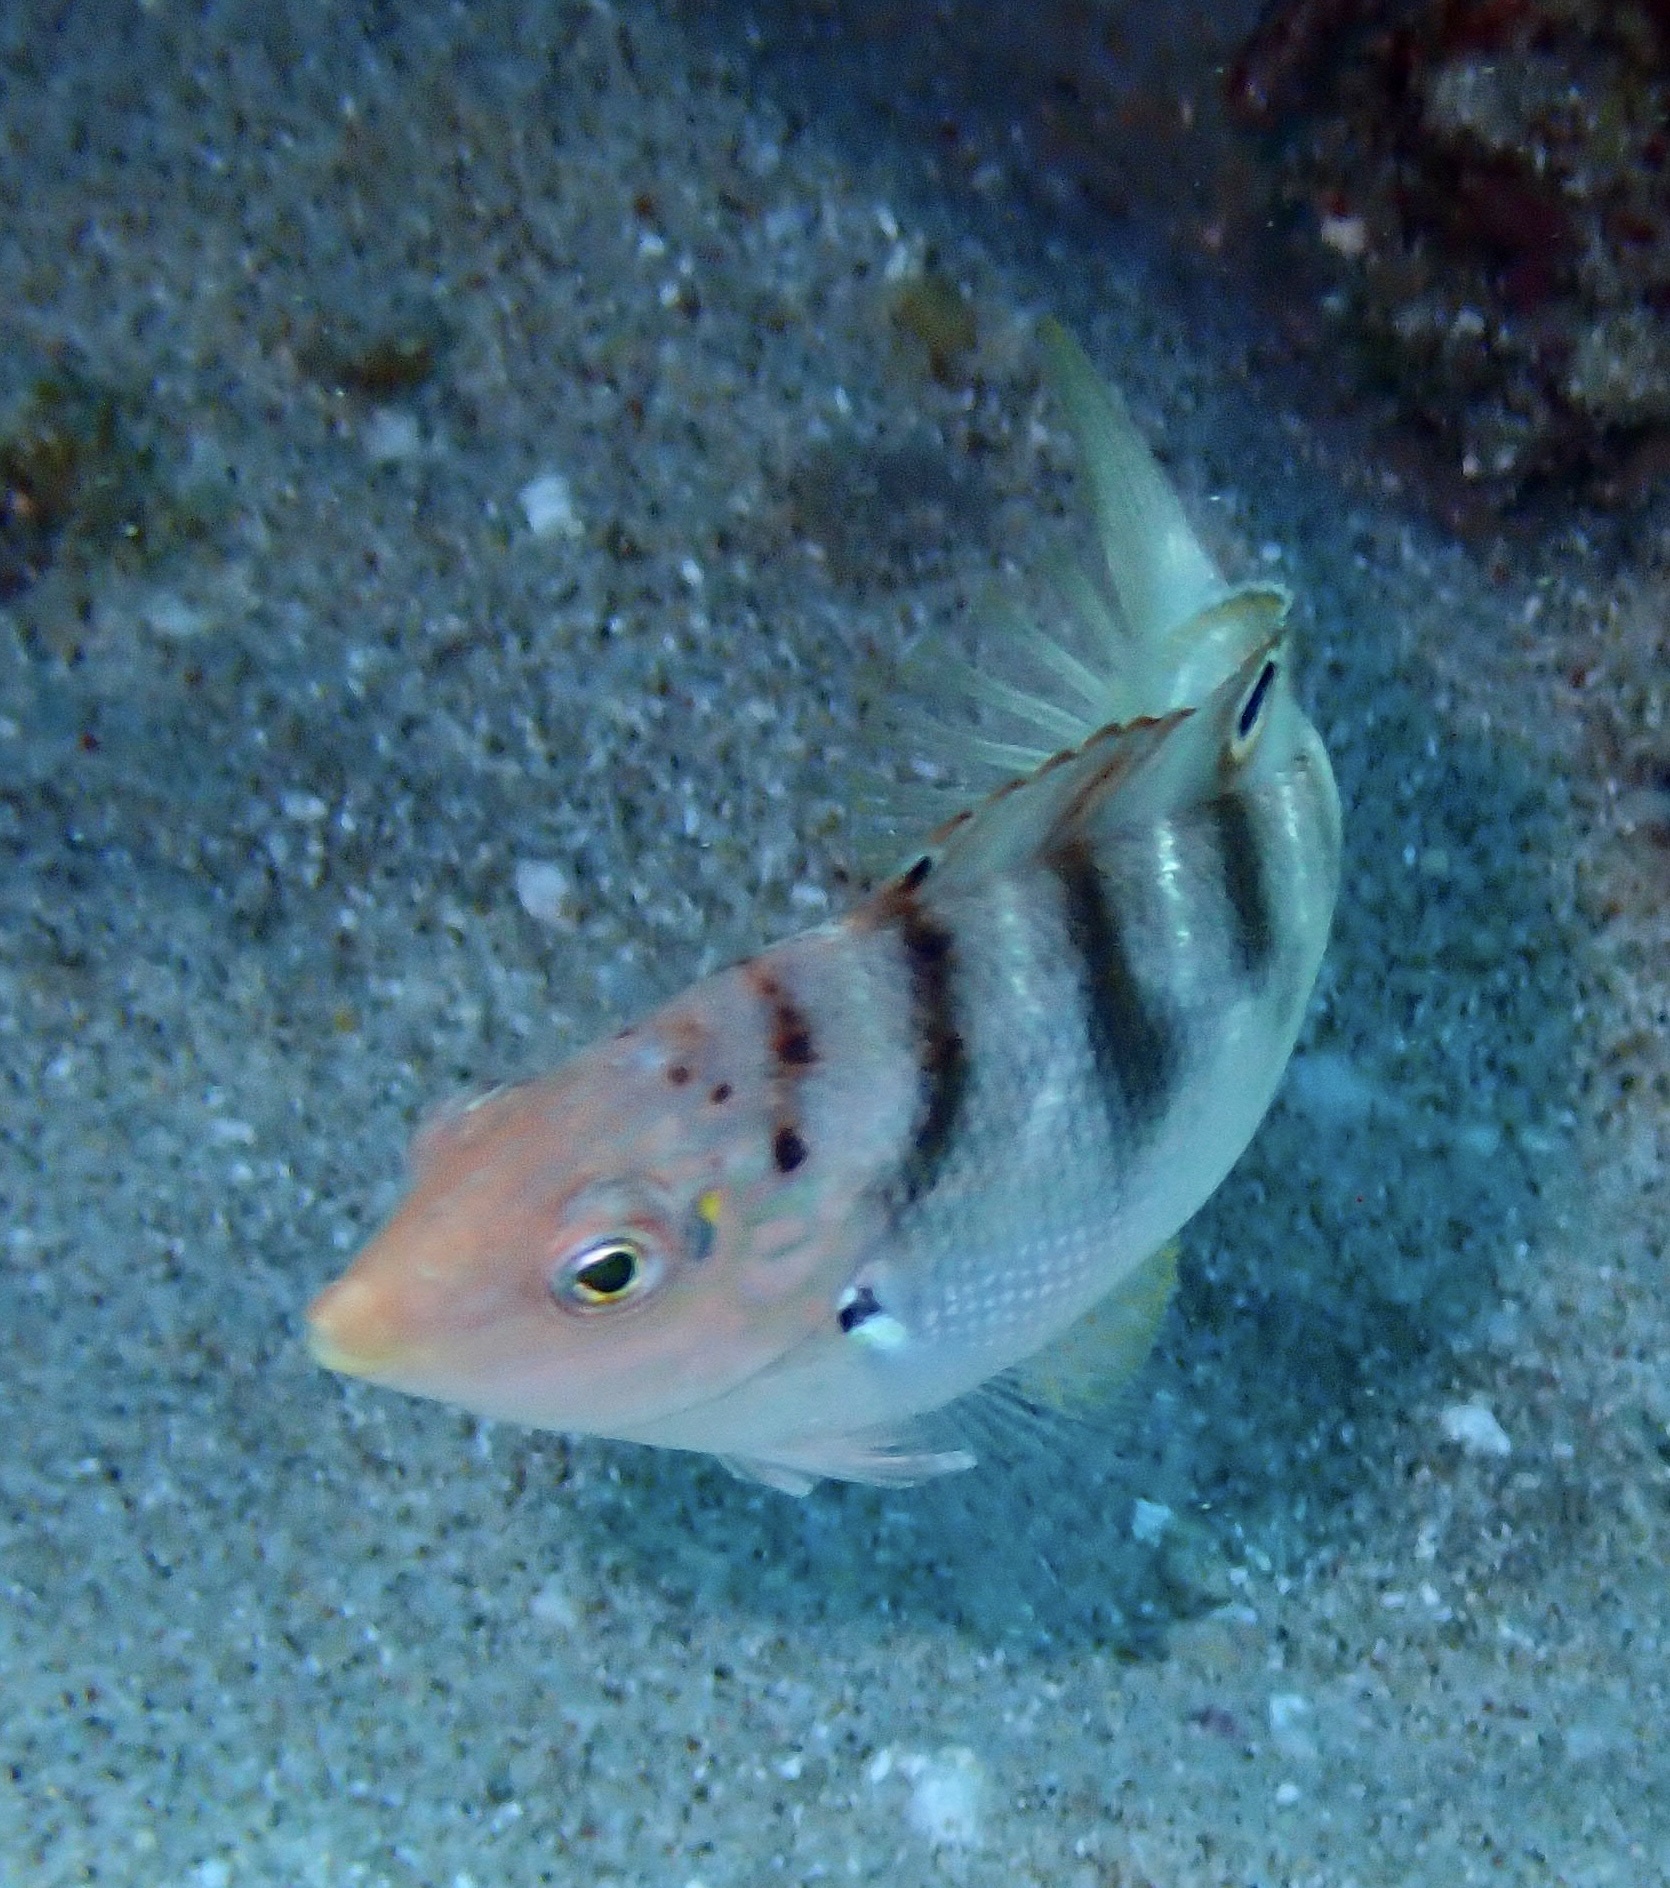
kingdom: Animalia
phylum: Chordata
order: Perciformes
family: Labridae
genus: Coris
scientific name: Coris batuensis
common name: Batu coris
